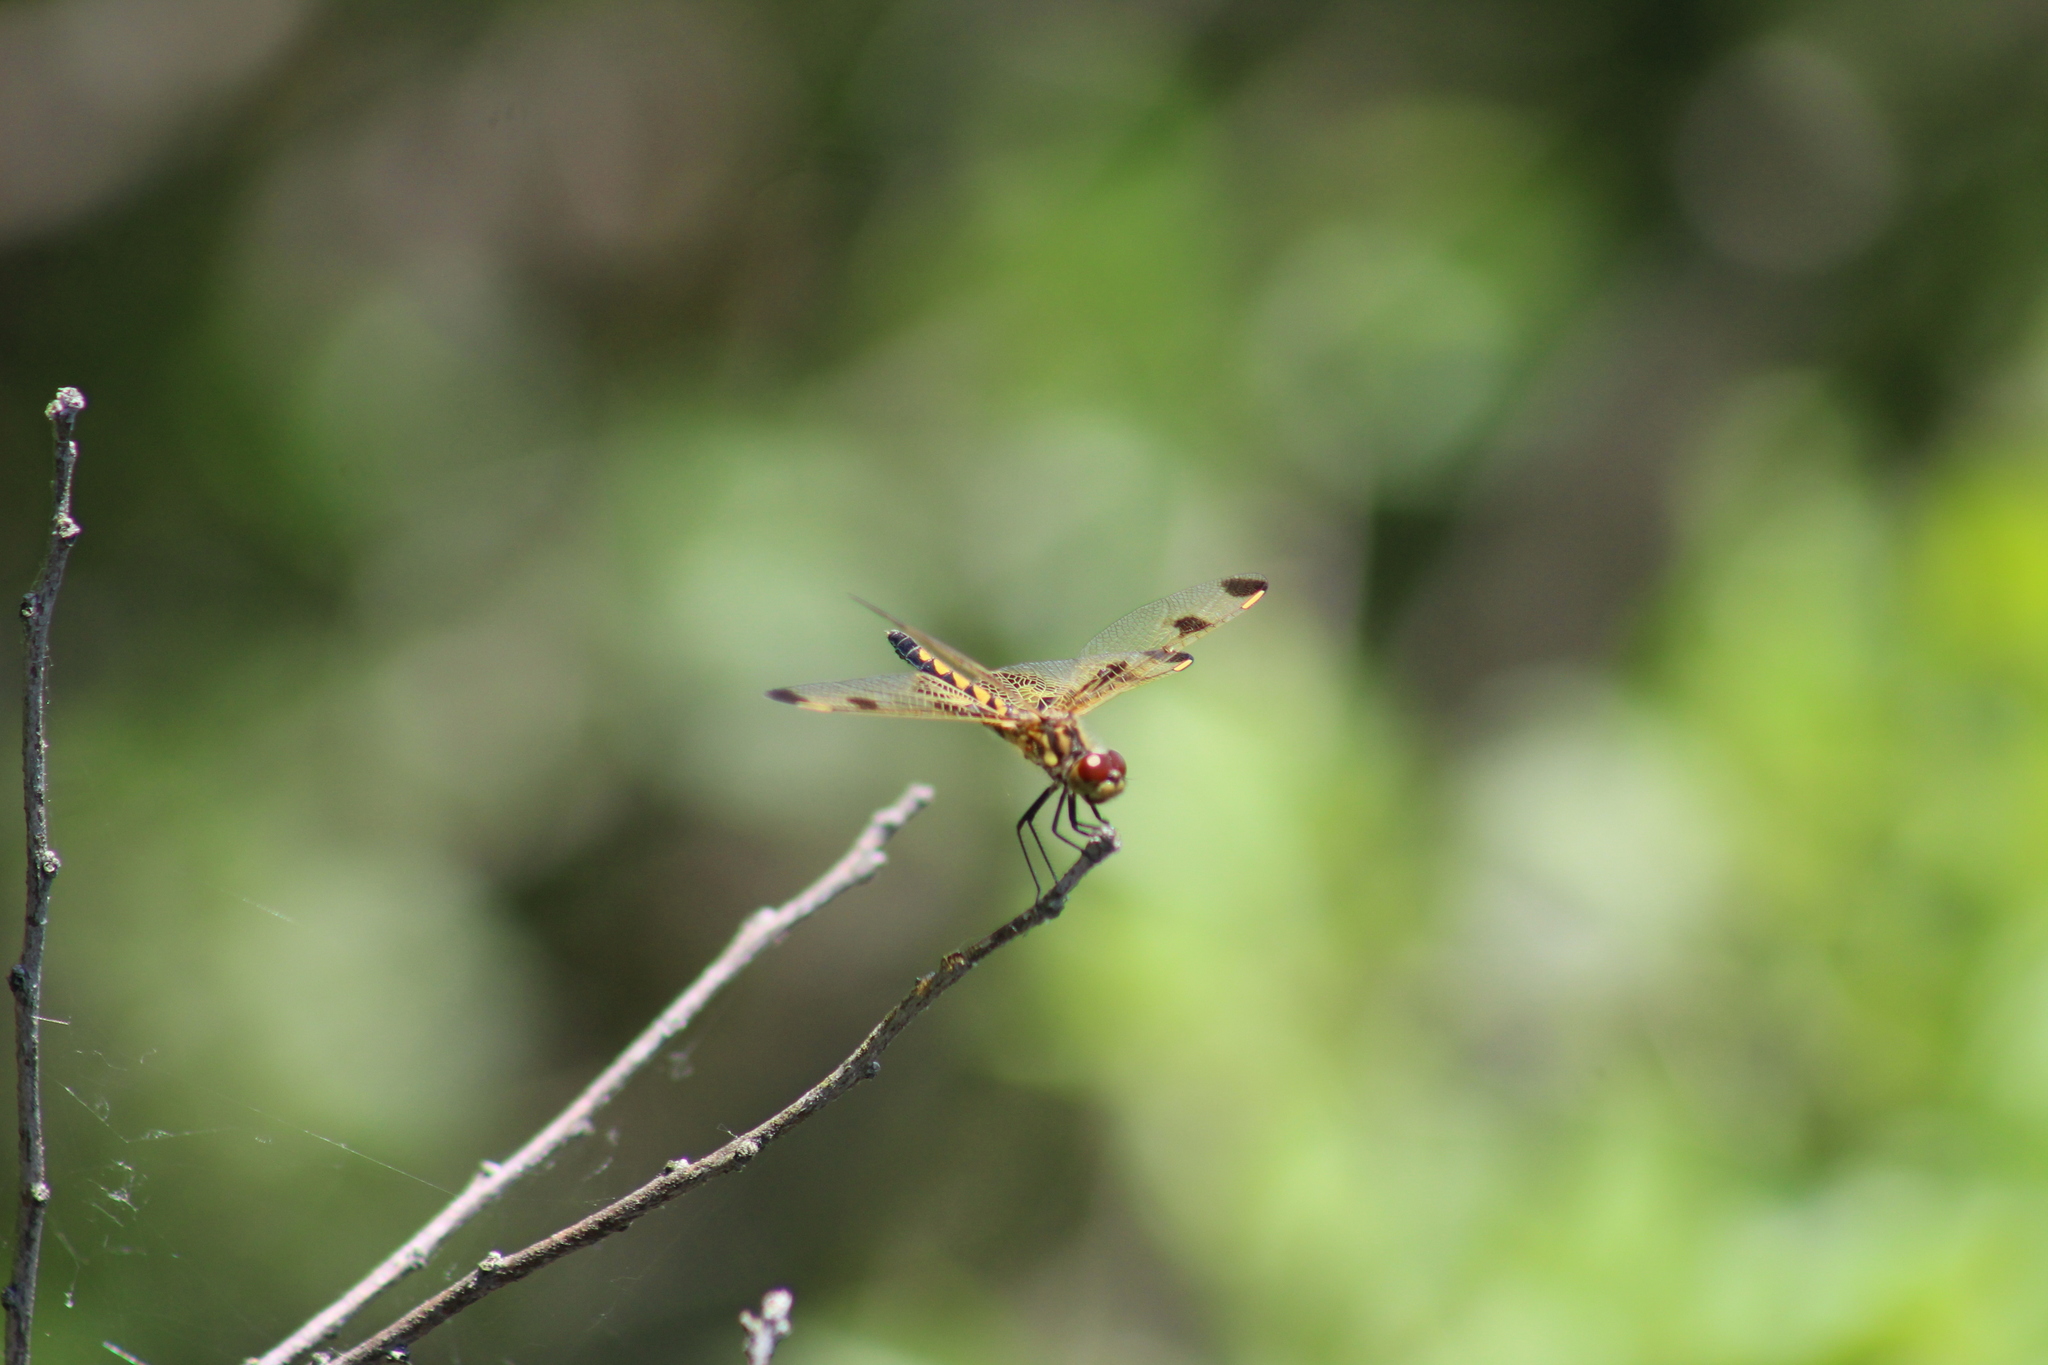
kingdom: Animalia
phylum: Arthropoda
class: Insecta
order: Odonata
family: Libellulidae
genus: Celithemis
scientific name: Celithemis elisa
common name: Calico pennant
